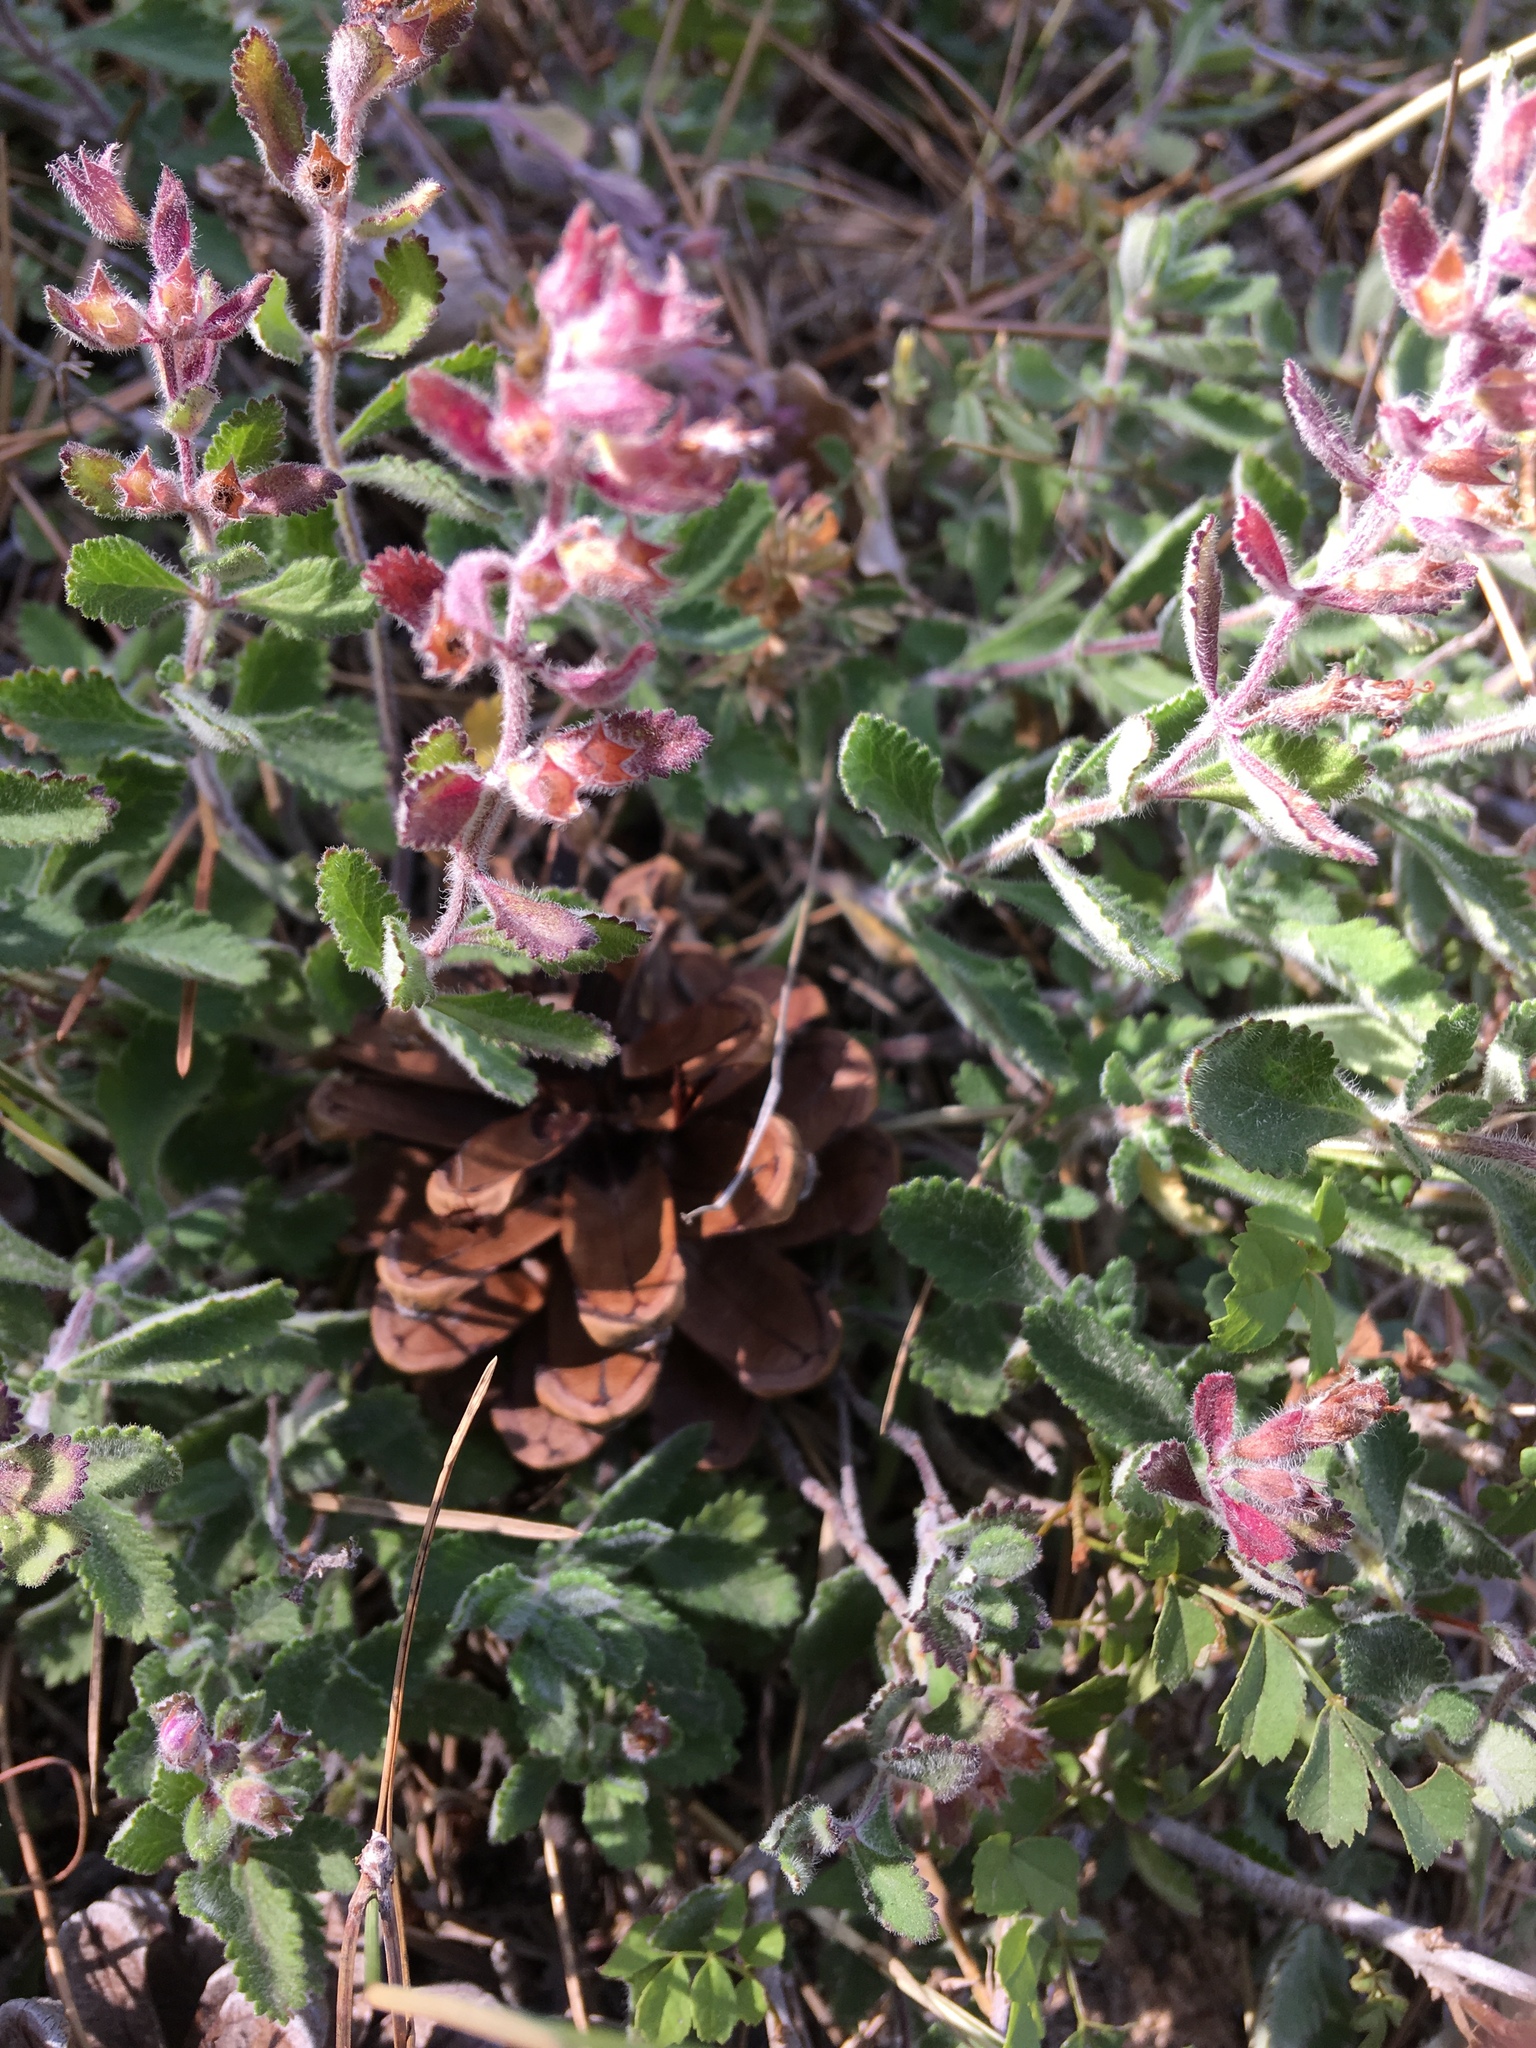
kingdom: Plantae
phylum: Tracheophyta
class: Magnoliopsida
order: Lamiales
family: Lamiaceae
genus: Teucrium
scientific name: Teucrium chamaedrys
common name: Wall germander
